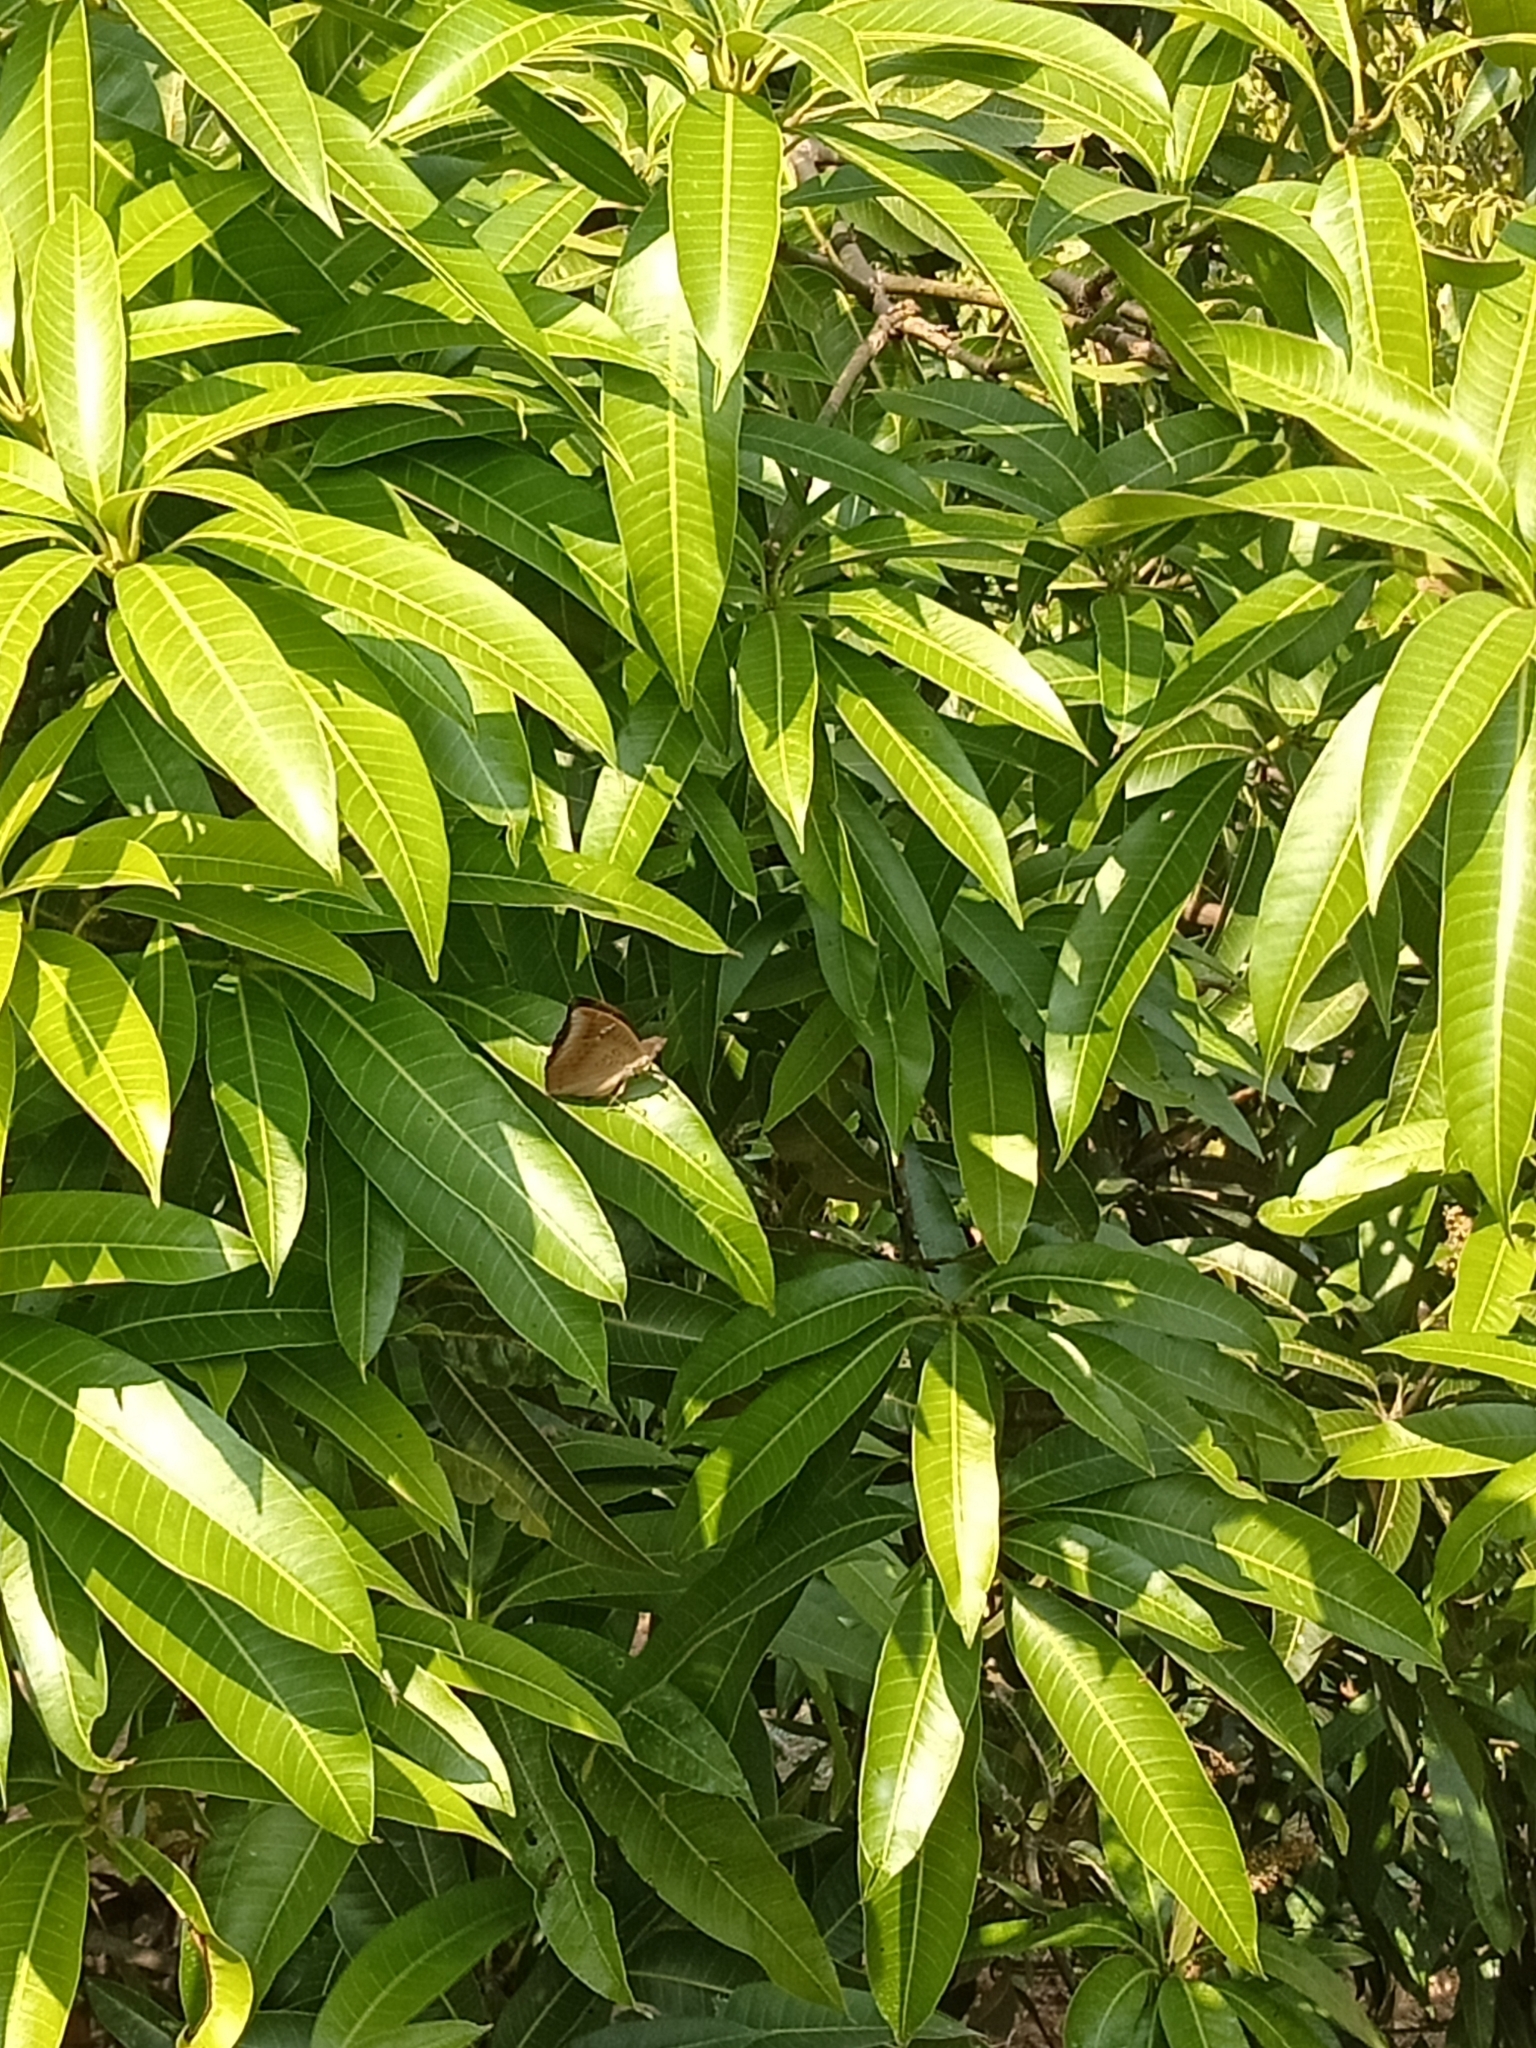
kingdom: Animalia
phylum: Arthropoda
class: Insecta
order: Lepidoptera
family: Nymphalidae
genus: Euthalia
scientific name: Euthalia aconthea
